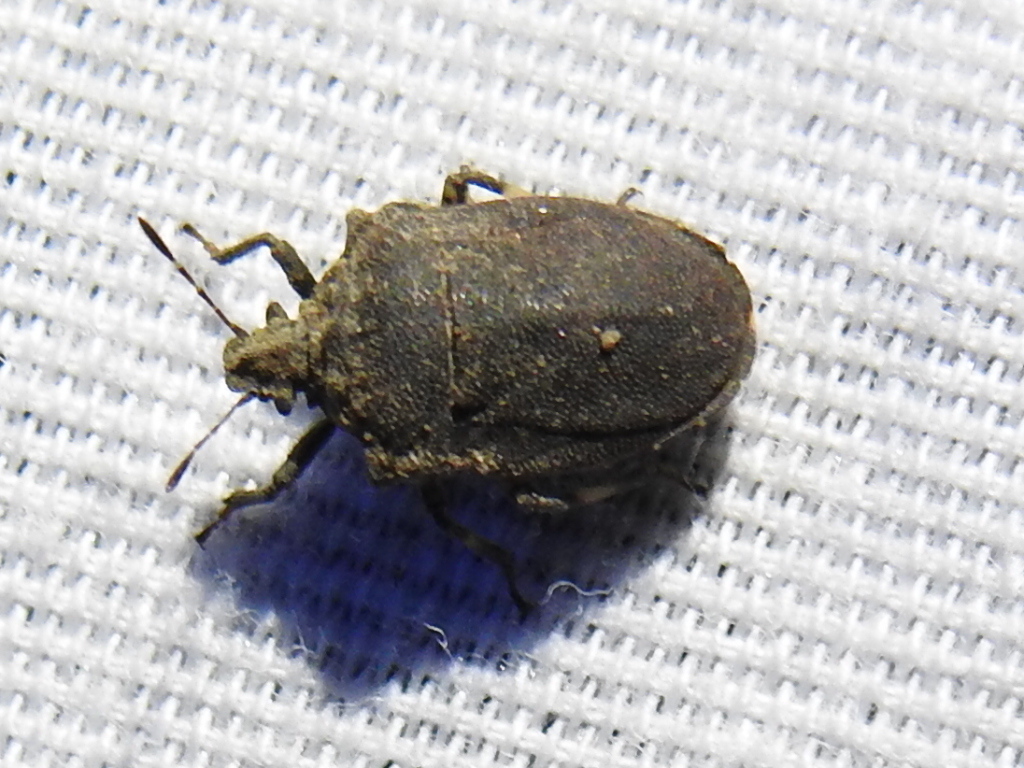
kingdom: Animalia
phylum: Arthropoda
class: Insecta
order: Hemiptera
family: Pentatomidae
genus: Amaurochrous
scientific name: Amaurochrous cinctipes
